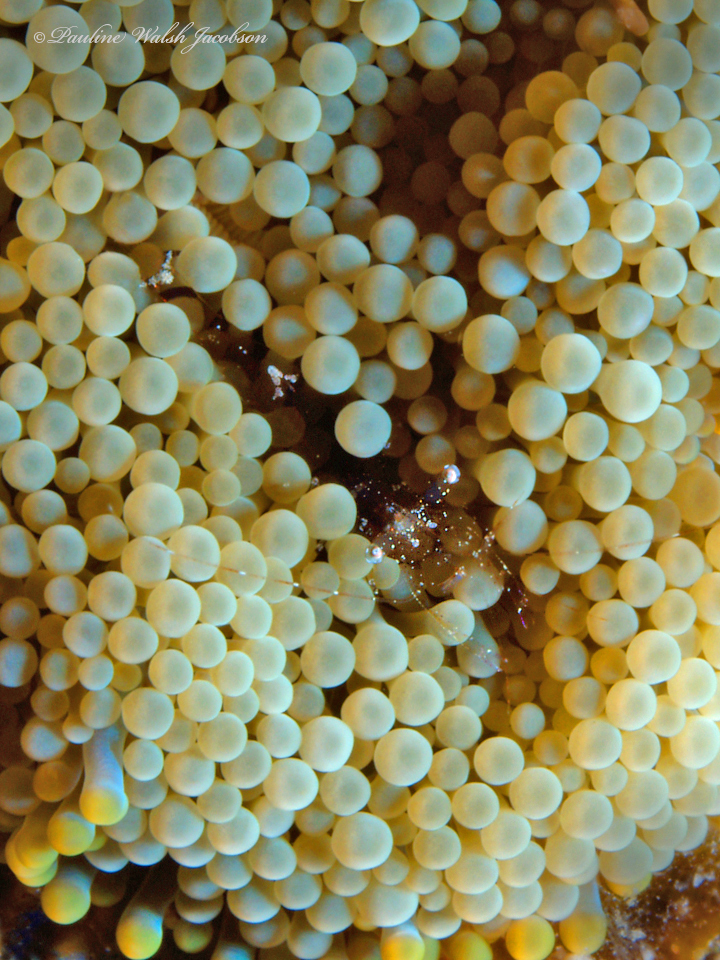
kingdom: Animalia
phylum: Cnidaria
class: Anthozoa
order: Corallimorpharia
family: Ricordeidae
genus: Ricordea
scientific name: Ricordea florida
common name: False coral
